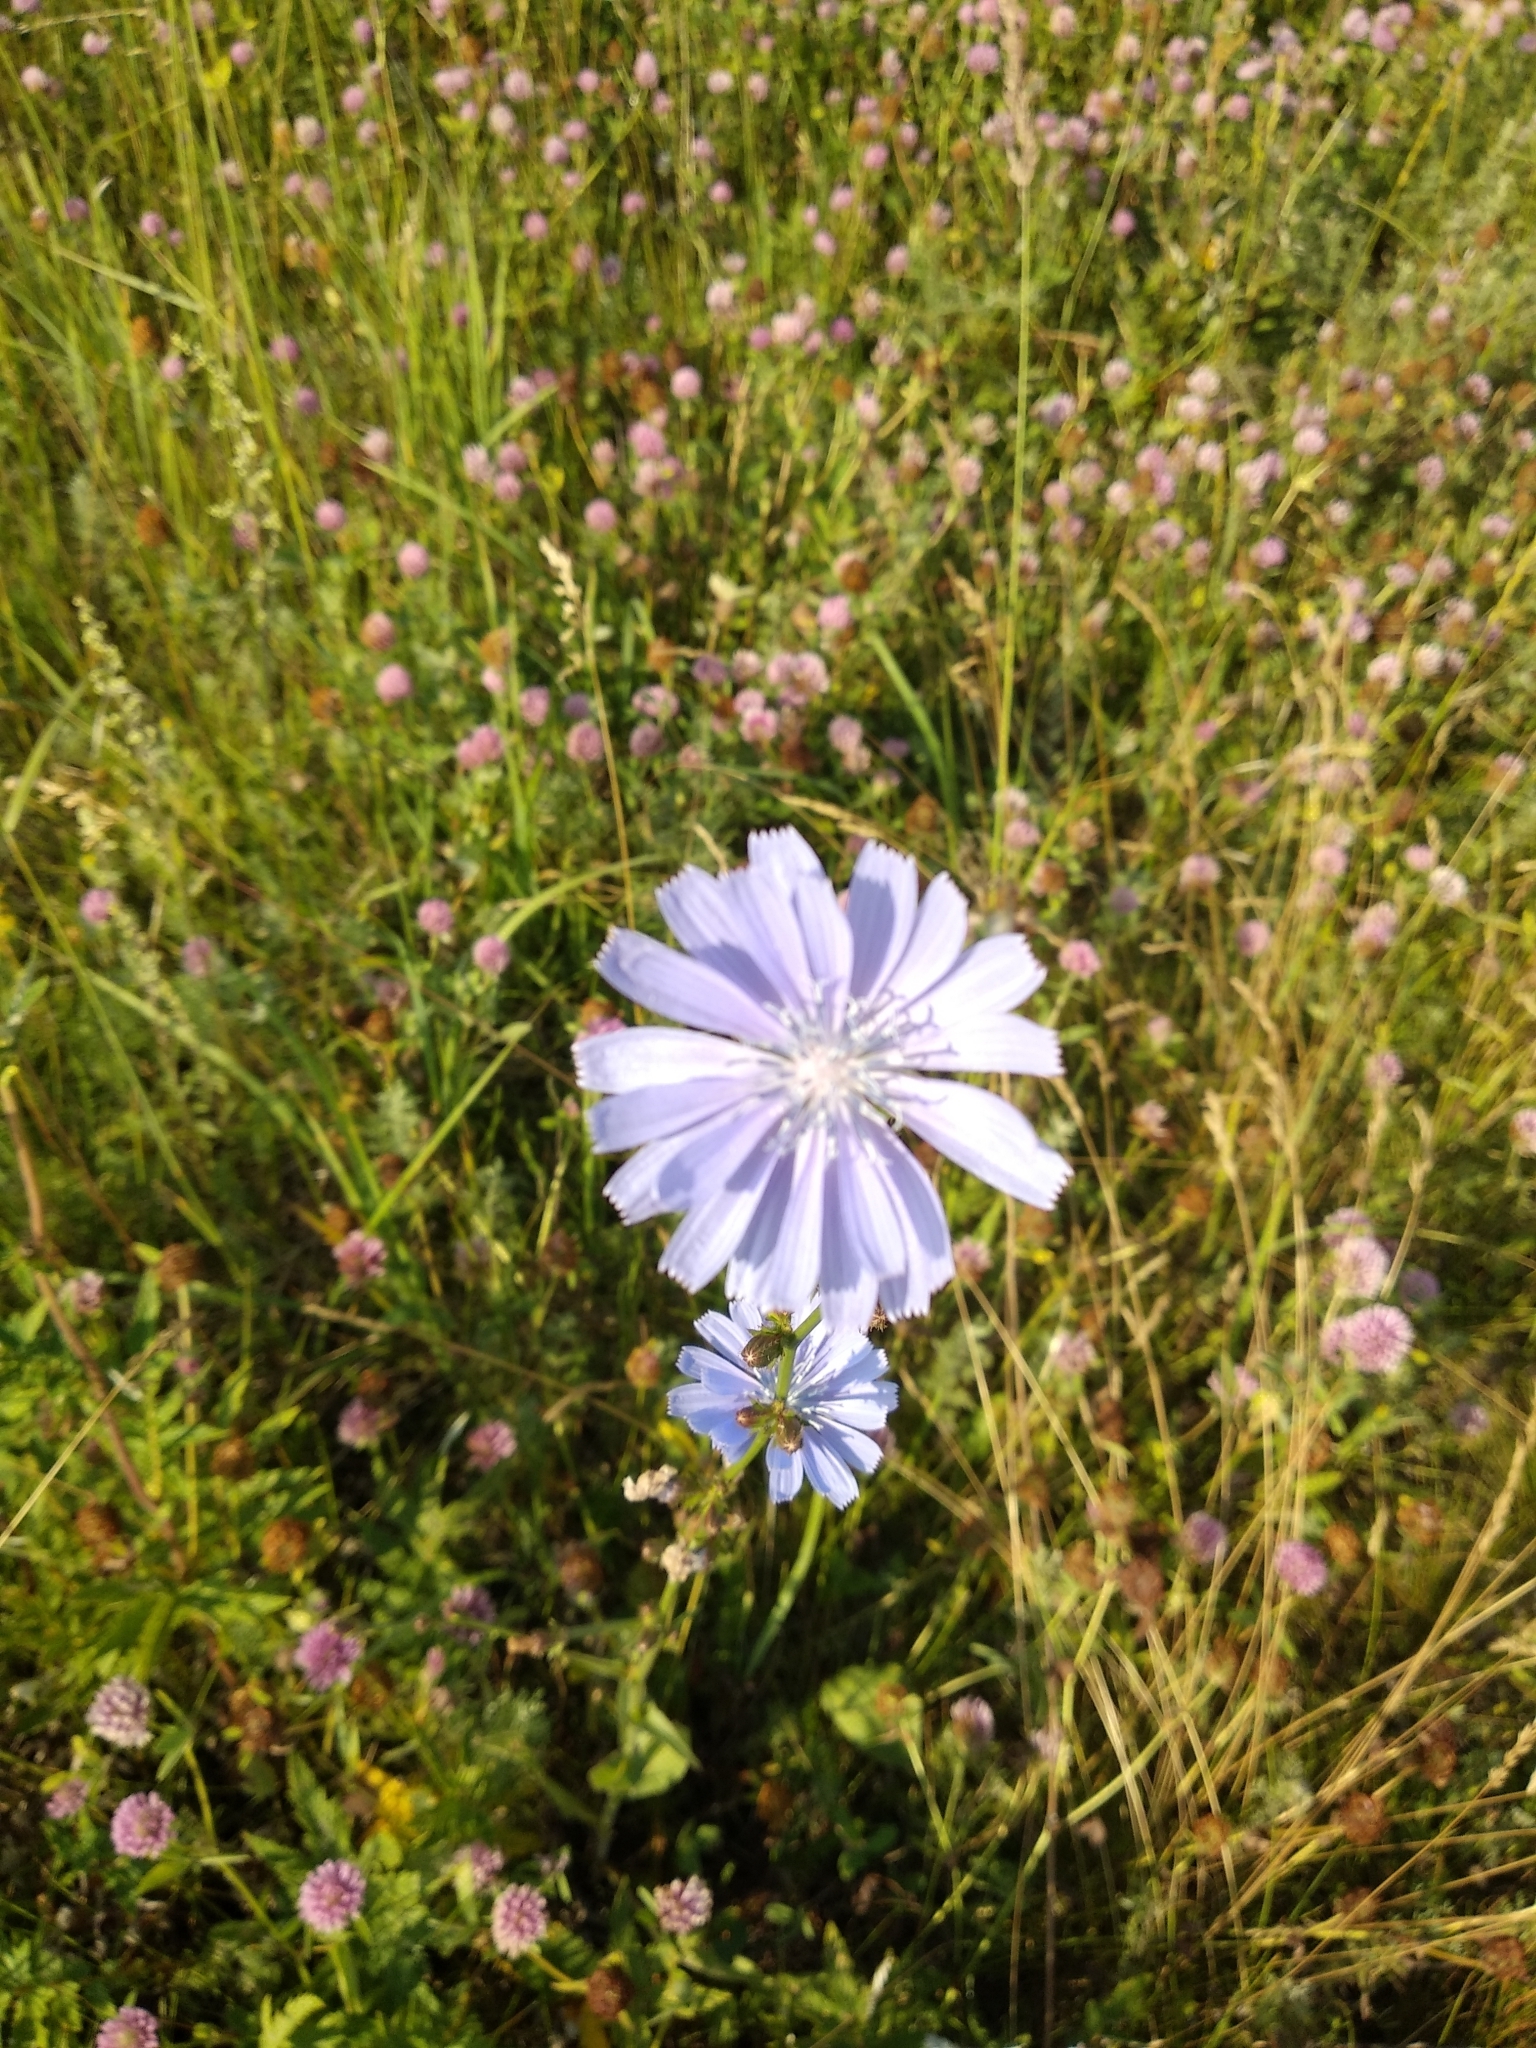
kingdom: Plantae
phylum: Tracheophyta
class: Magnoliopsida
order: Asterales
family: Asteraceae
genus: Cichorium
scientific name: Cichorium intybus
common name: Chicory
